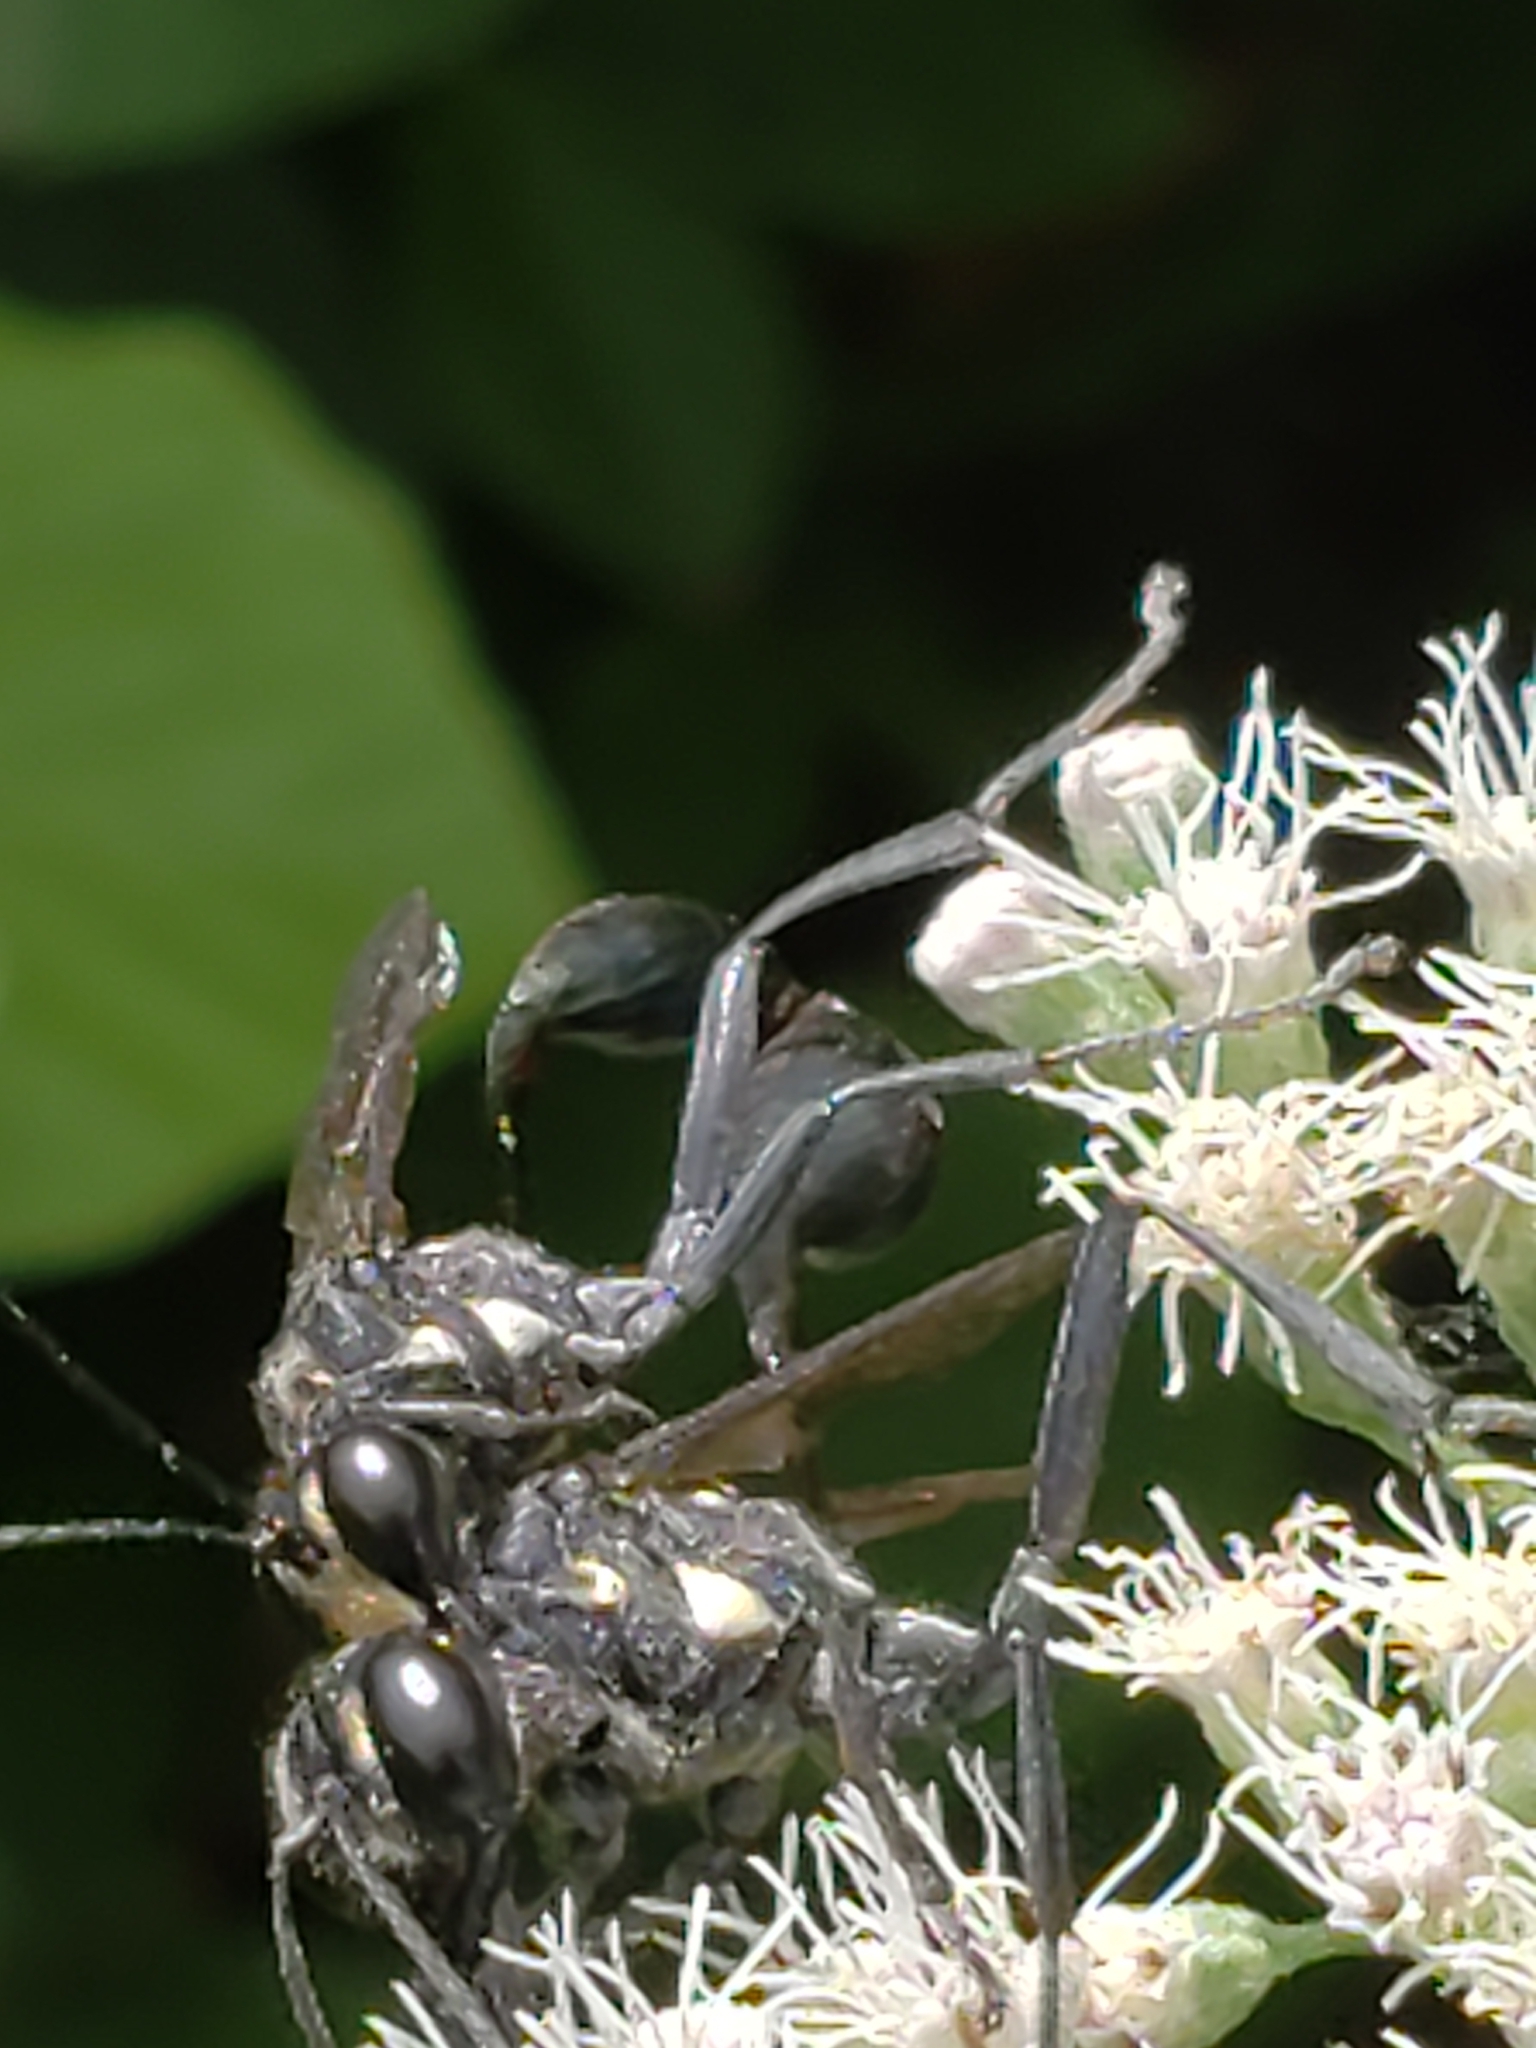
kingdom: Animalia
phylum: Arthropoda
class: Insecta
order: Hymenoptera
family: Sphecidae
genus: Eremnophila
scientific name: Eremnophila aureonotata
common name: Gold-marked thread-waisted wasp
